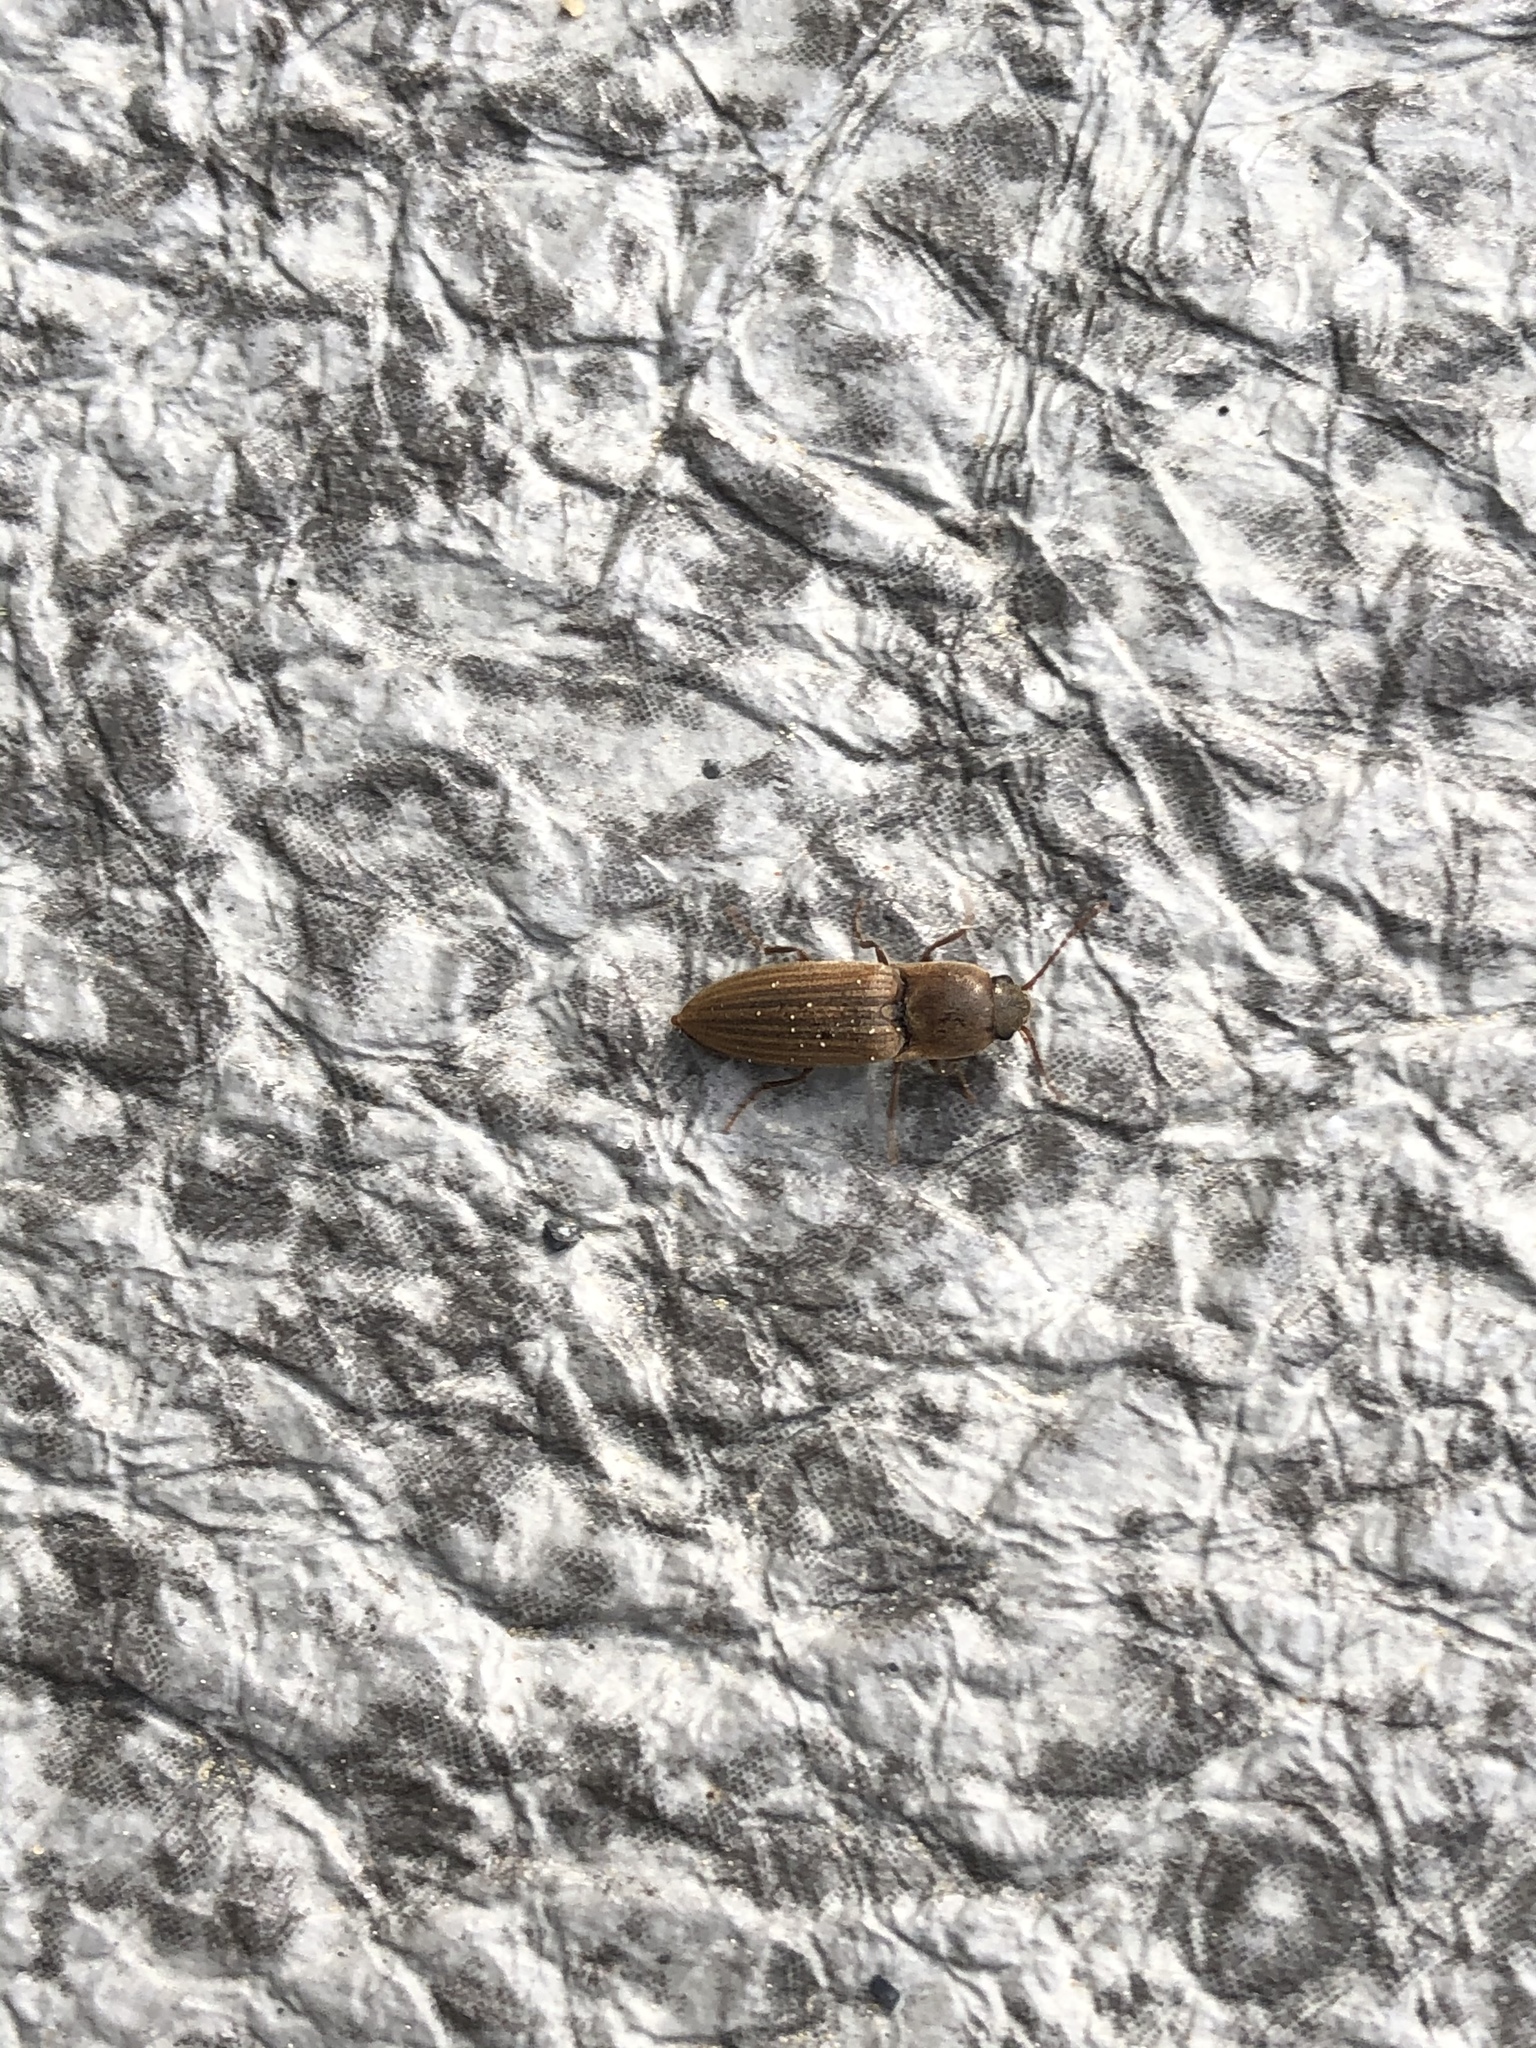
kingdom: Animalia
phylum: Arthropoda
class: Insecta
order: Coleoptera
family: Elateridae
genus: Agriotes
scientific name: Agriotes lineatus
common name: Lined click beetle
